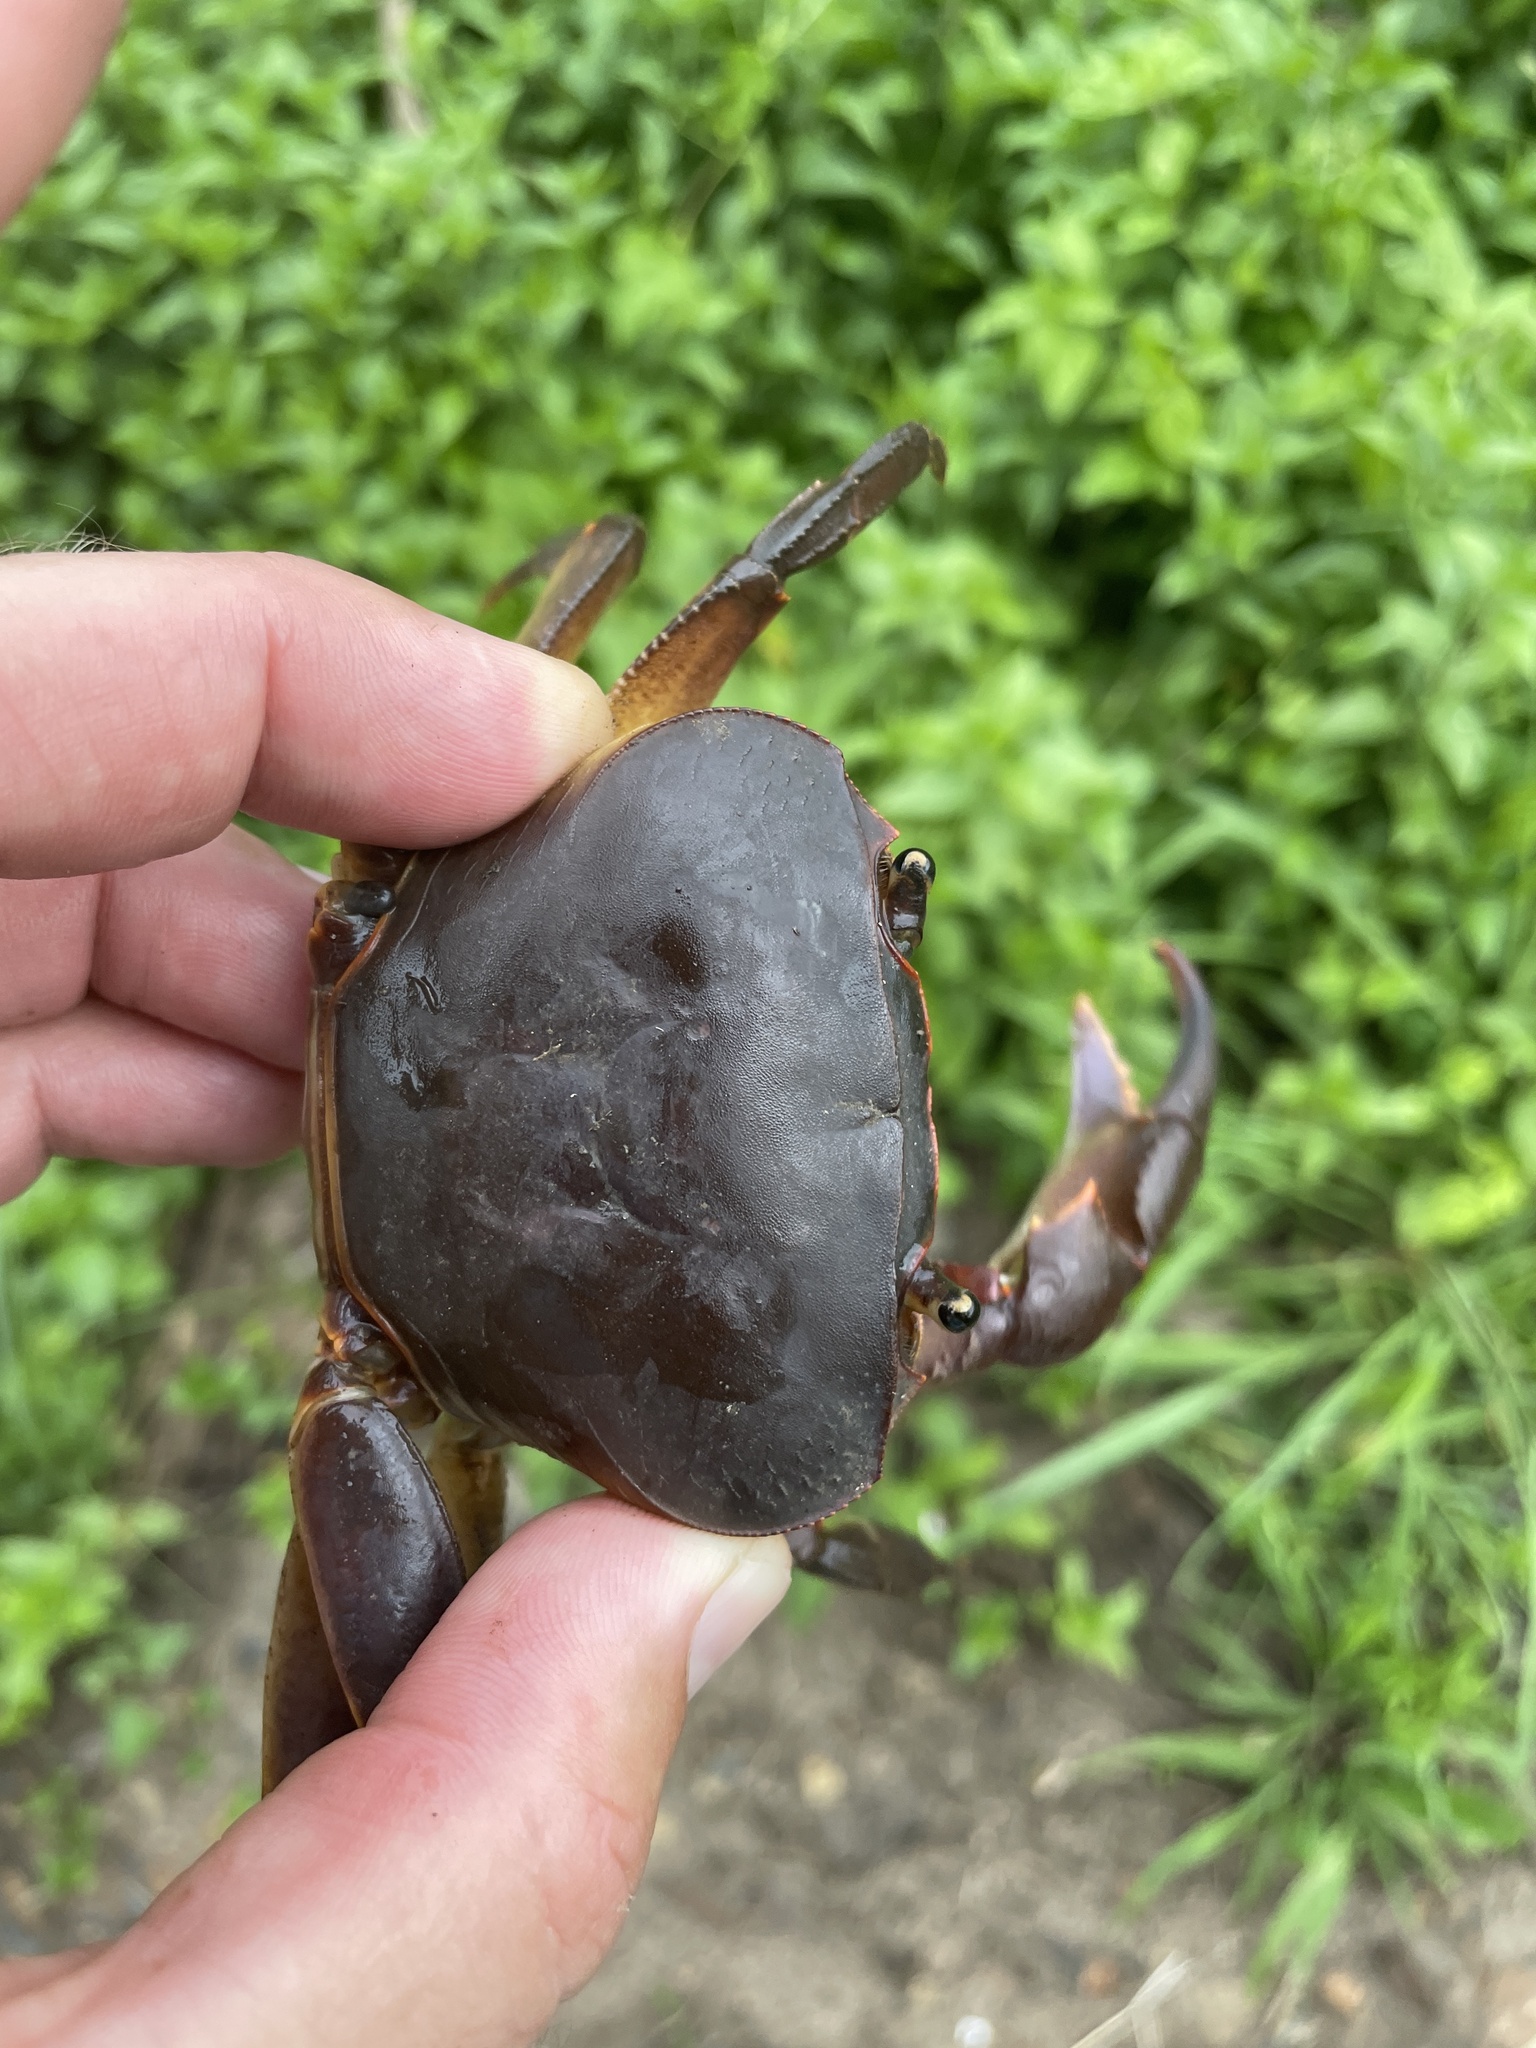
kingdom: Animalia
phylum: Arthropoda
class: Malacostraca
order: Decapoda
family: Potamonautidae
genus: Potamonautes
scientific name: Potamonautes sidneyi
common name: Natal river crab
